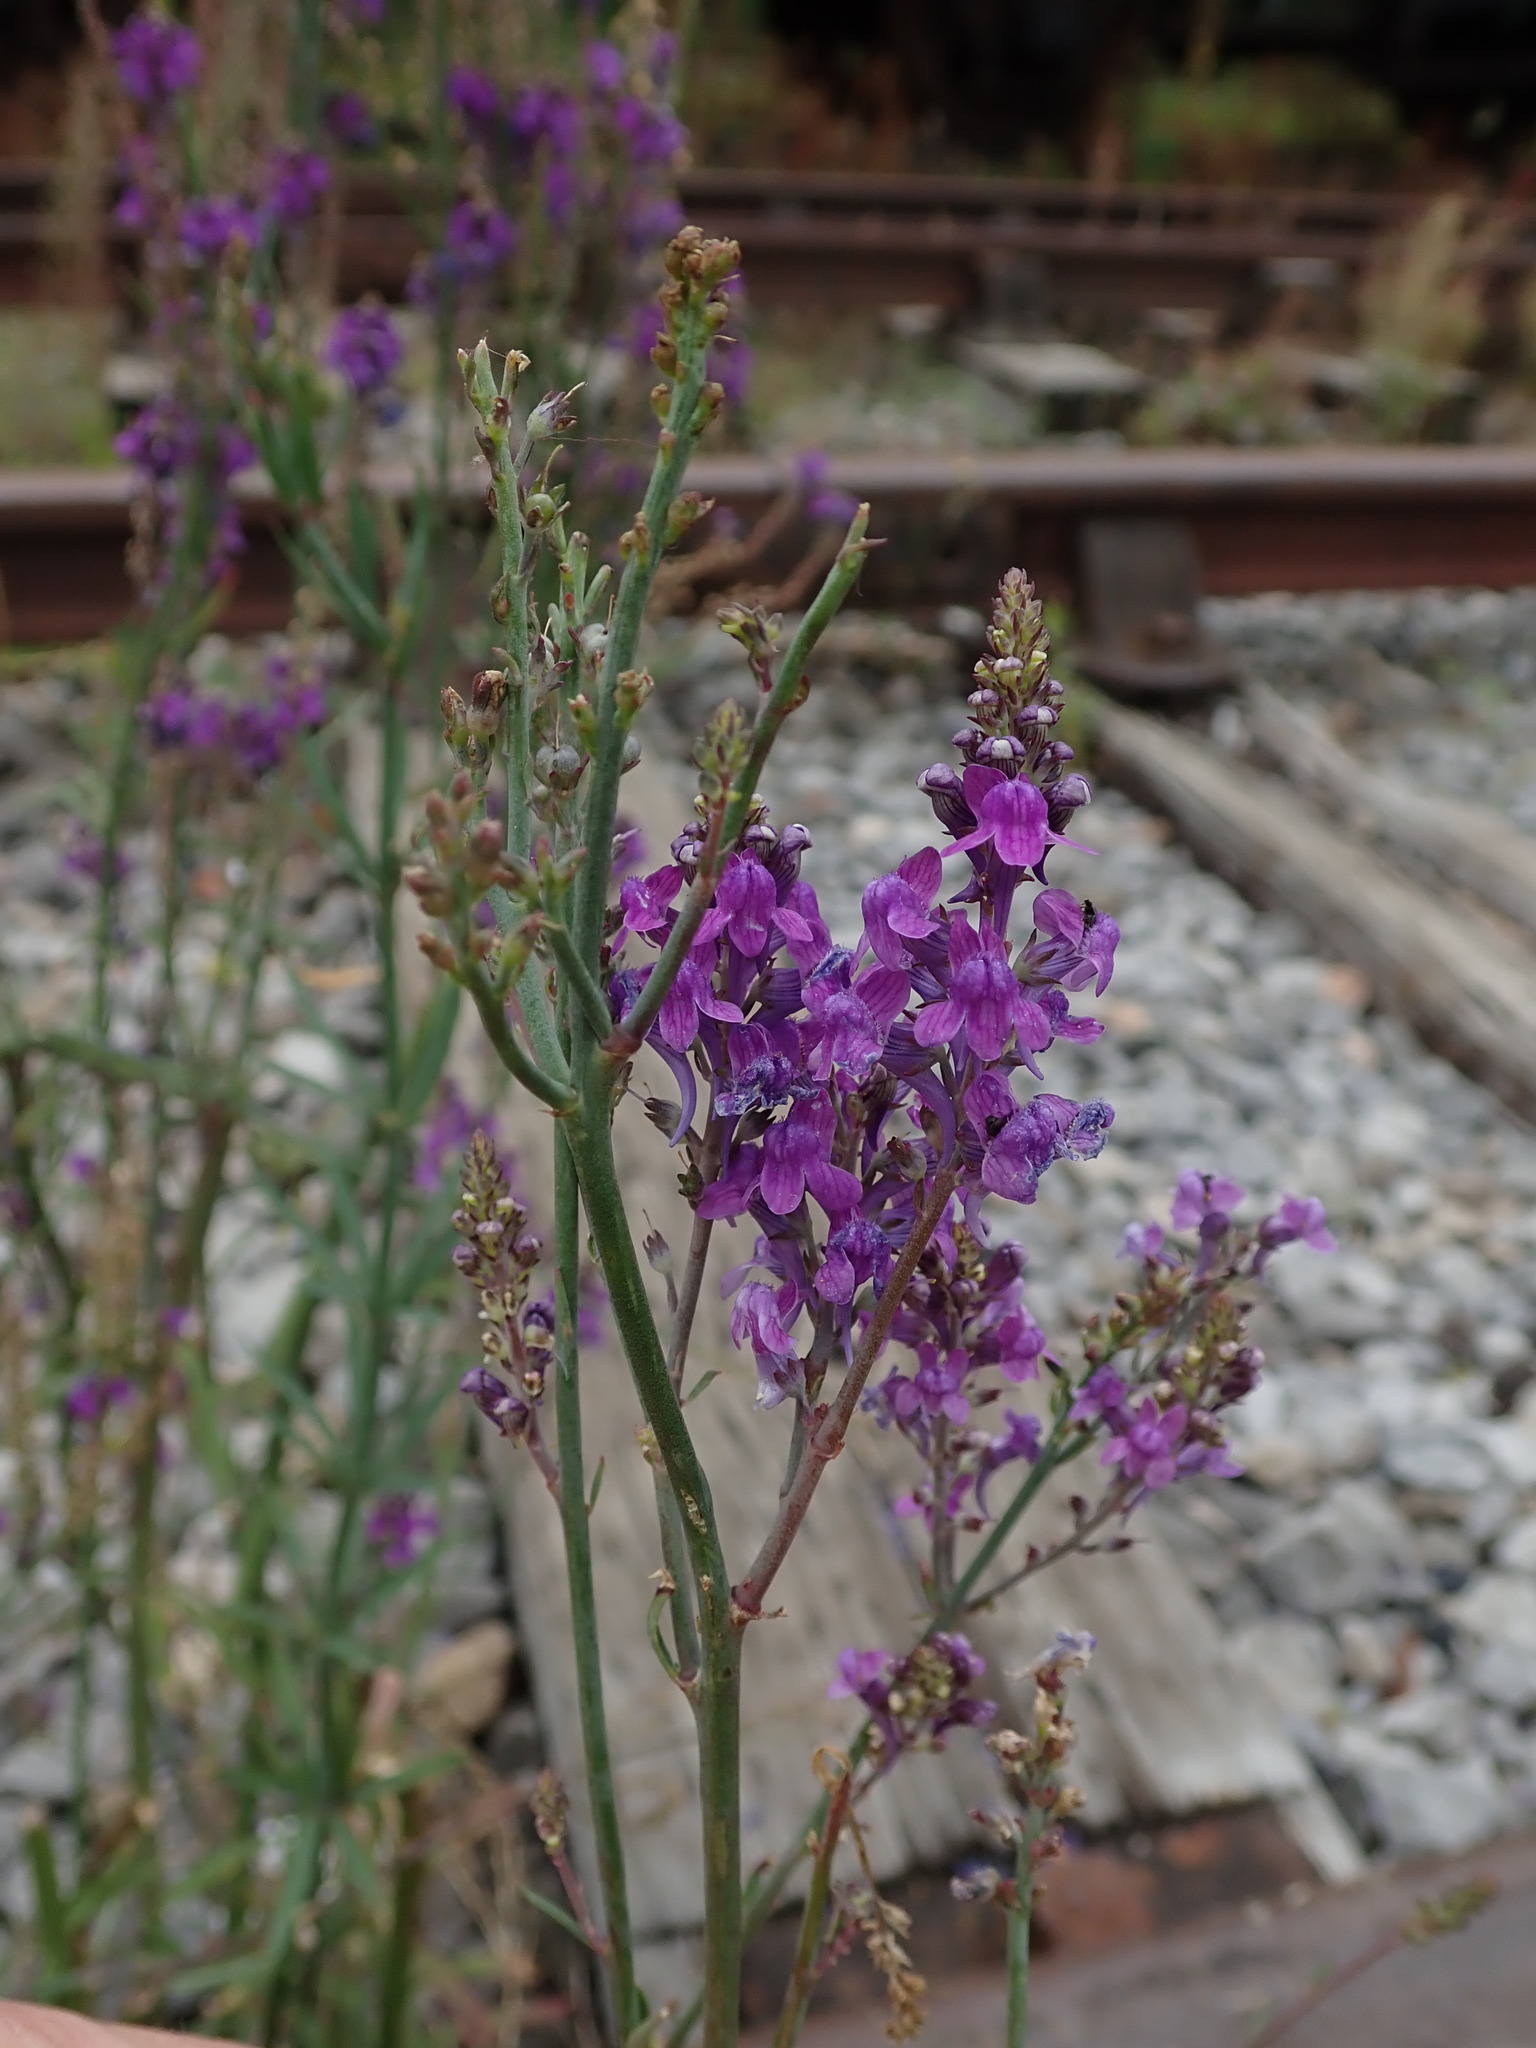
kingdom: Plantae
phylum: Tracheophyta
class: Magnoliopsida
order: Lamiales
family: Plantaginaceae
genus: Linaria
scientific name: Linaria purpurea
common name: Purple toadflax
